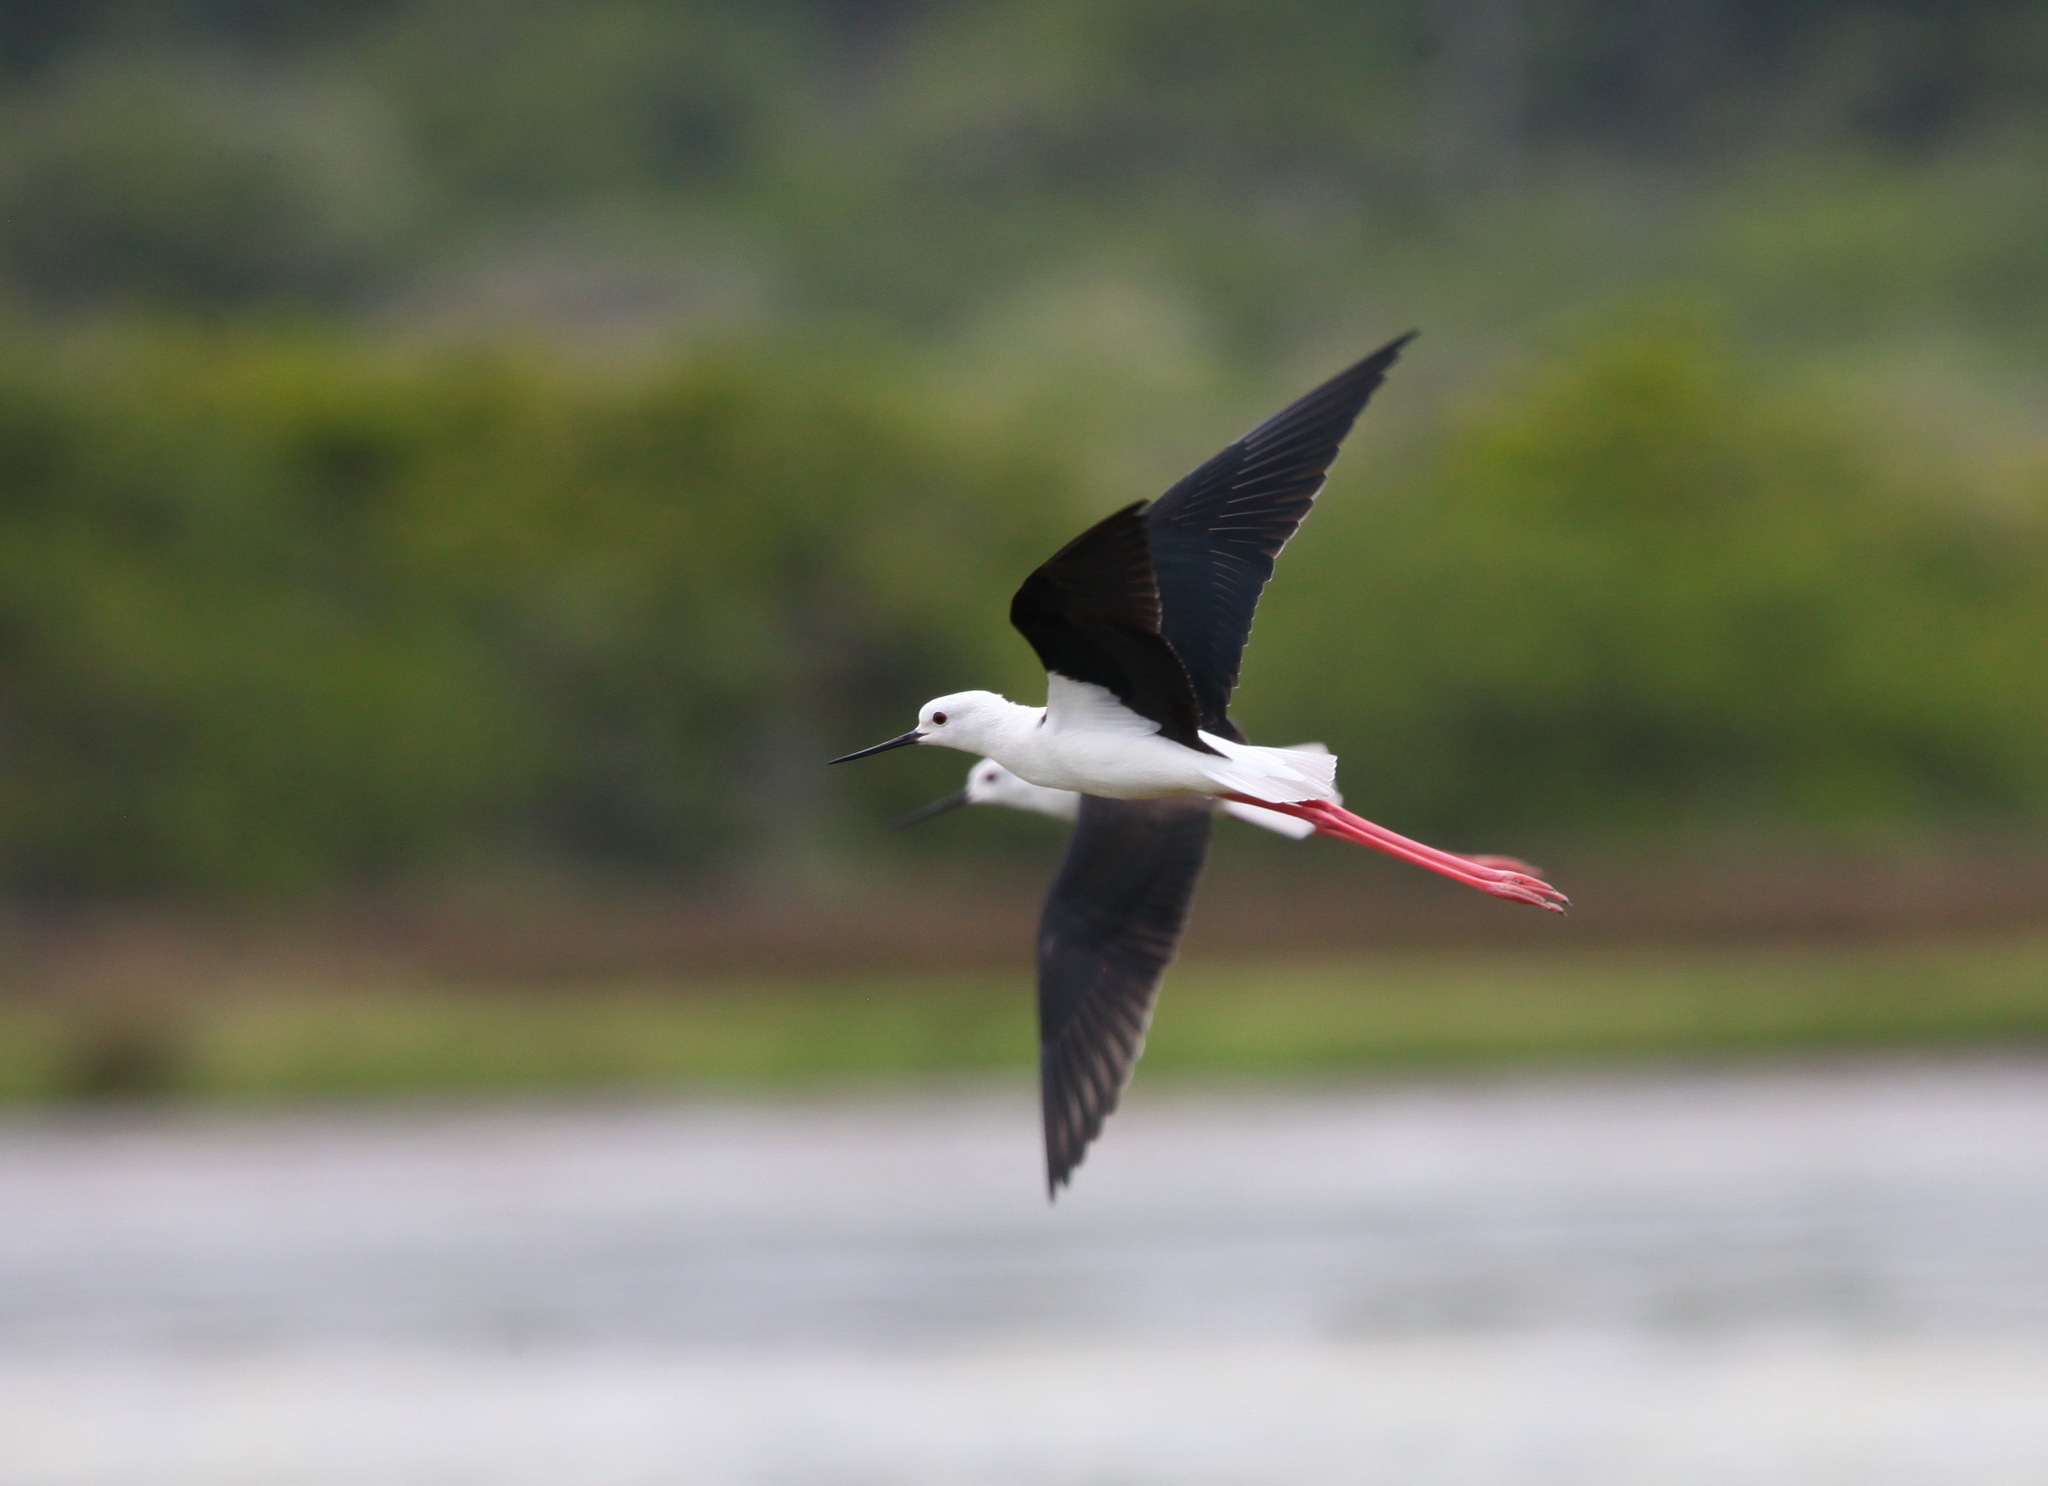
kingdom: Animalia
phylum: Chordata
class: Aves
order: Charadriiformes
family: Recurvirostridae
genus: Himantopus
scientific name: Himantopus himantopus
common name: Black-winged stilt
